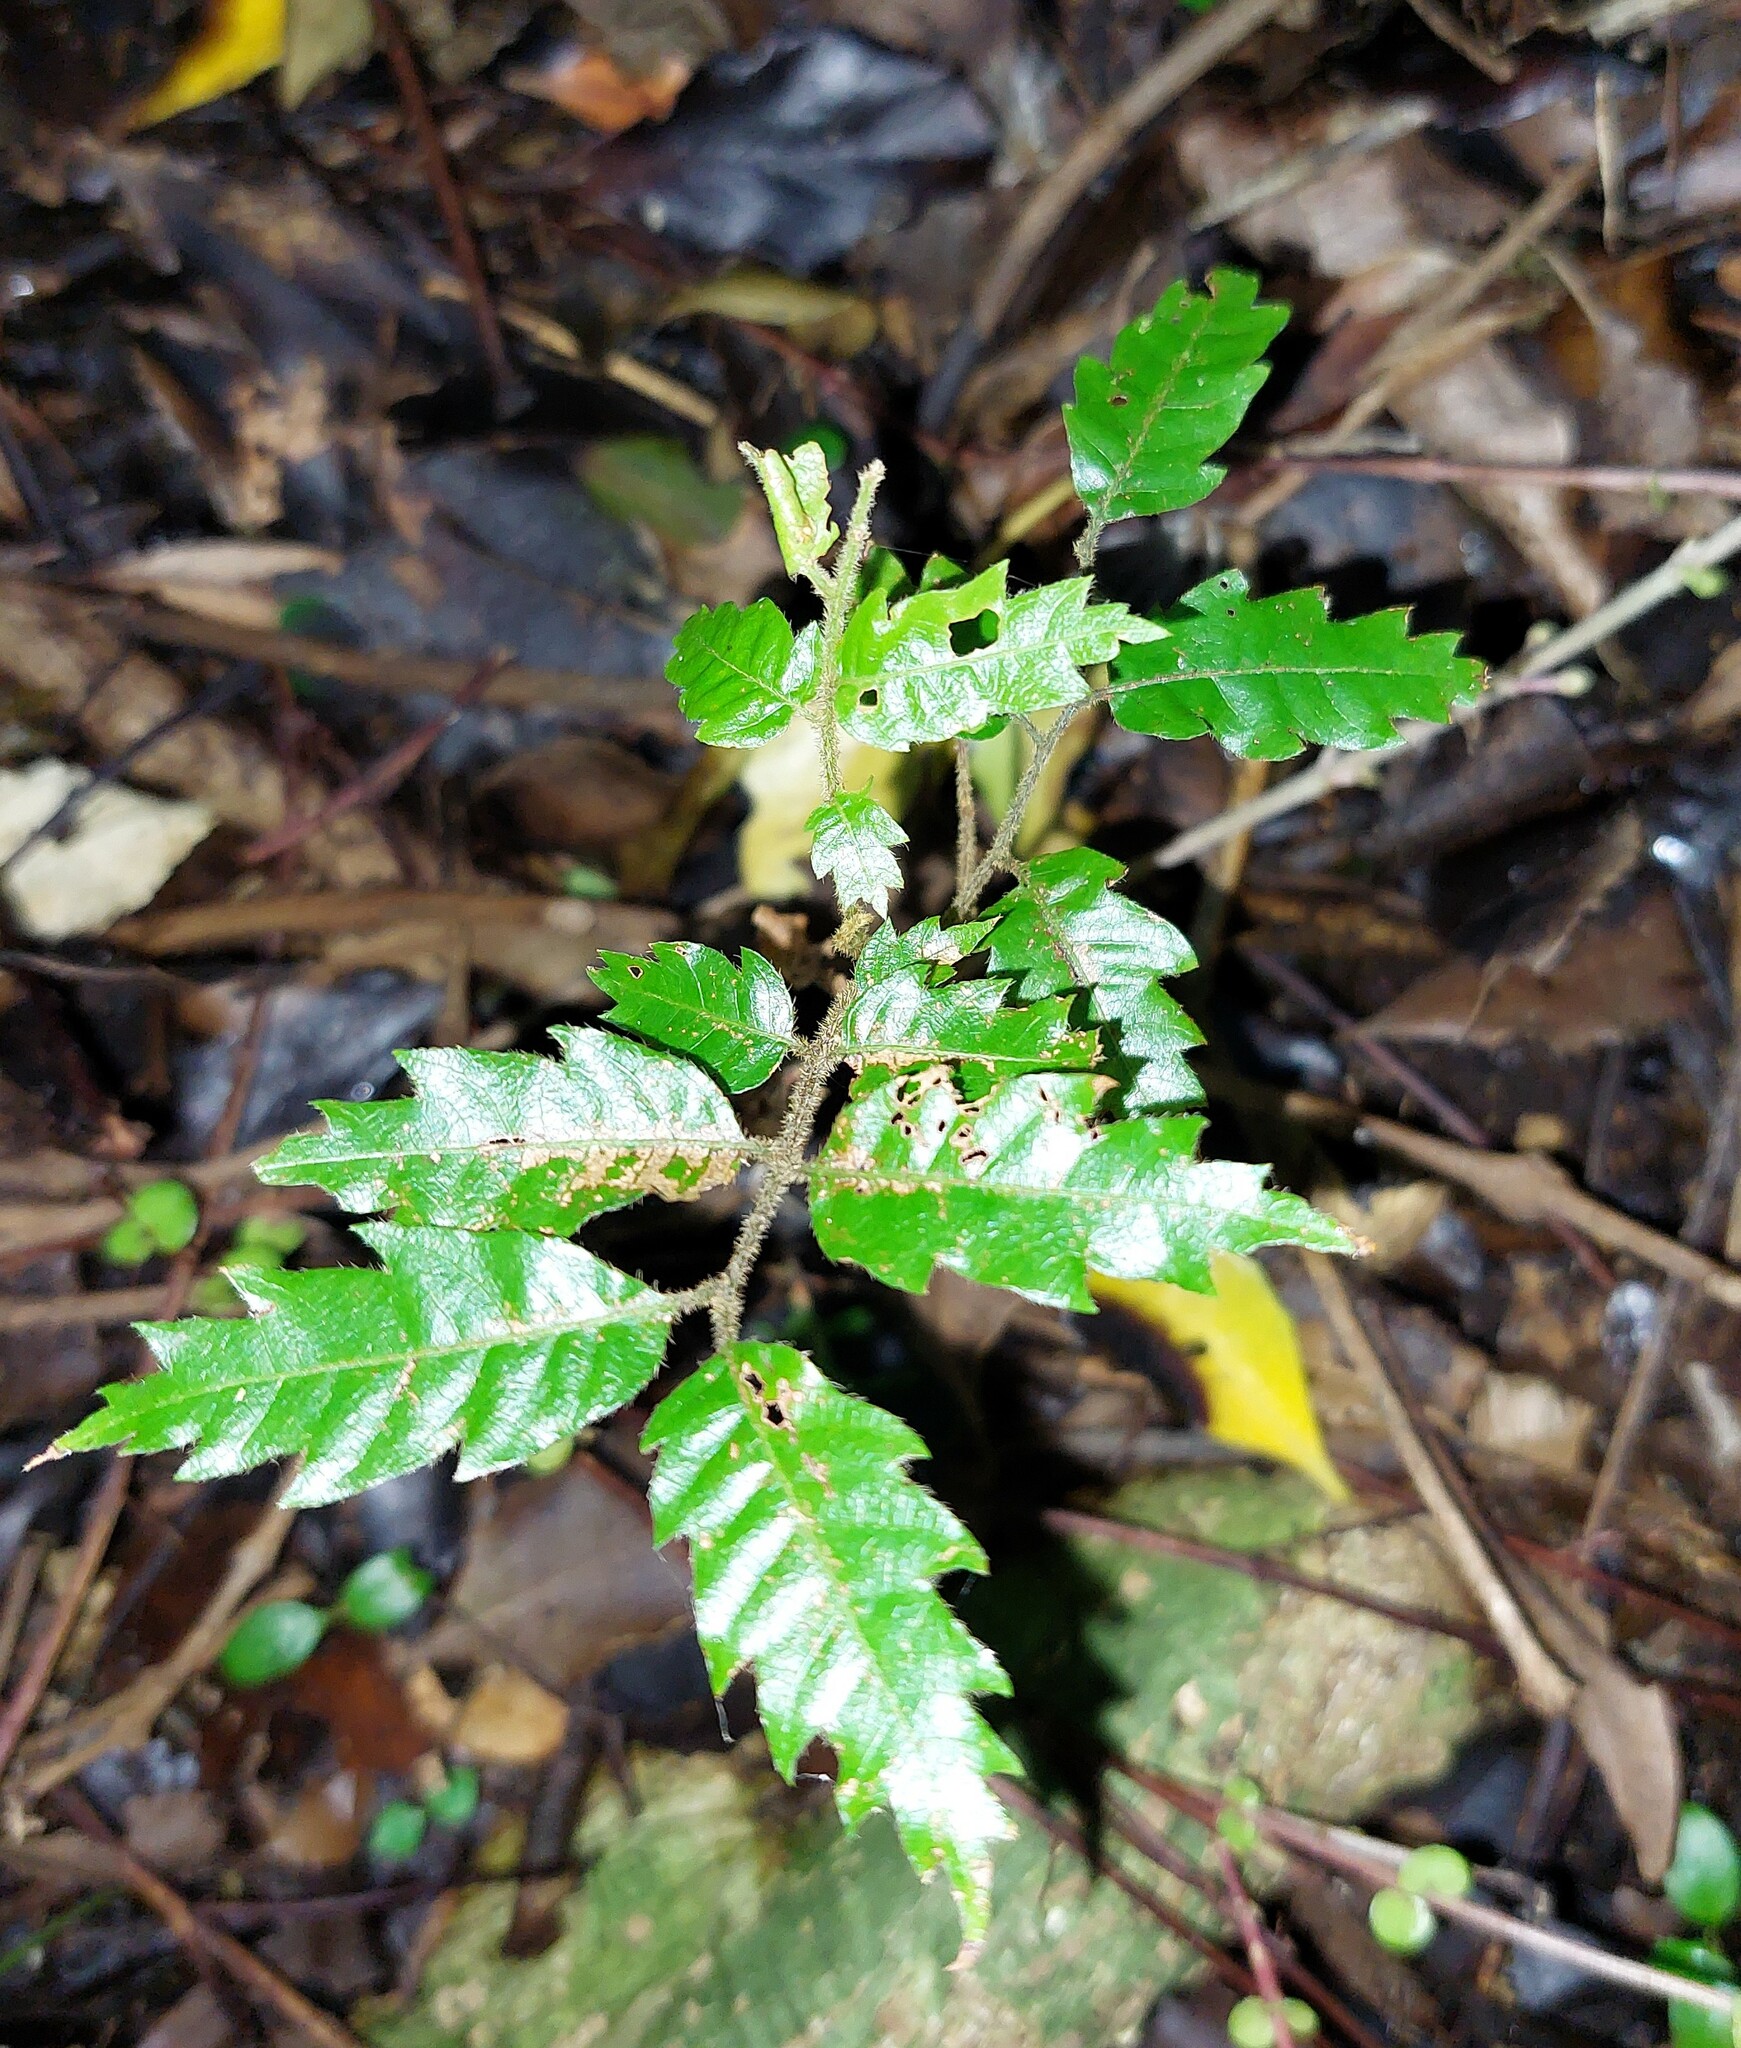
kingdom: Plantae
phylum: Tracheophyta
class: Magnoliopsida
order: Sapindales
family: Sapindaceae
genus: Alectryon
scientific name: Alectryon excelsus
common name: Three kings titoki
